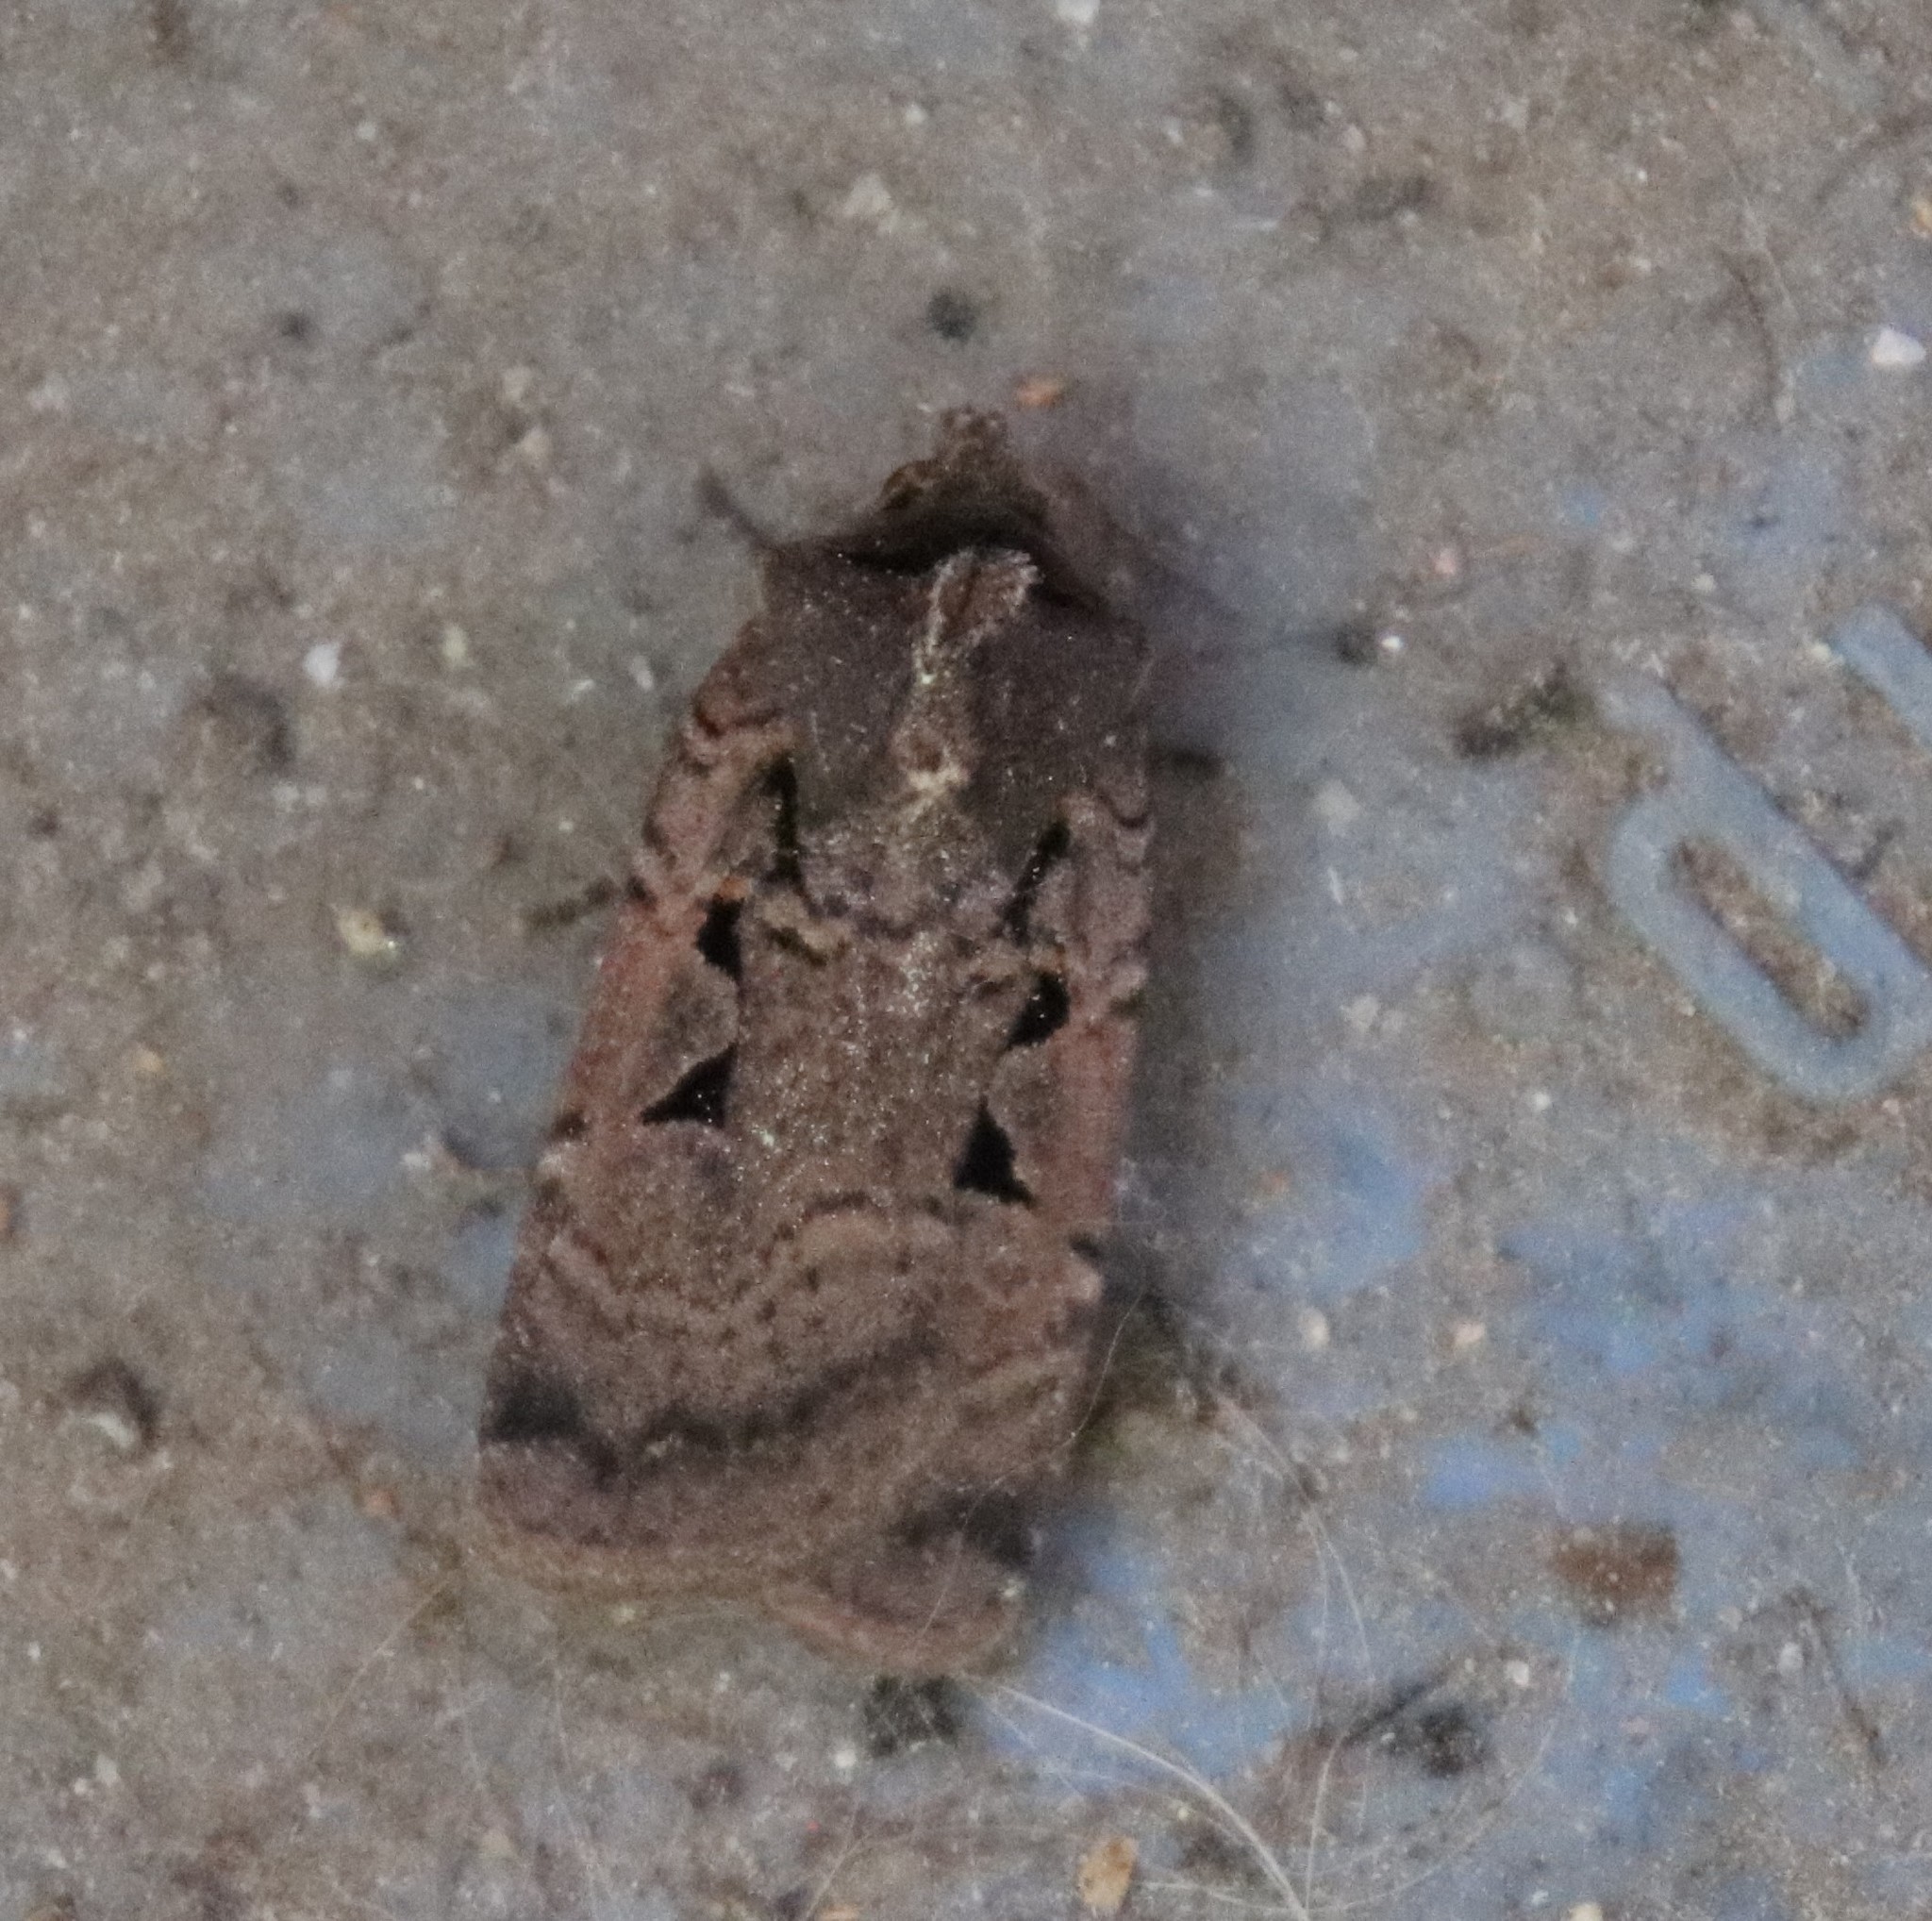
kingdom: Animalia
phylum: Arthropoda
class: Insecta
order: Lepidoptera
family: Noctuidae
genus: Parabagrotis
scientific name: Parabagrotis insularis
